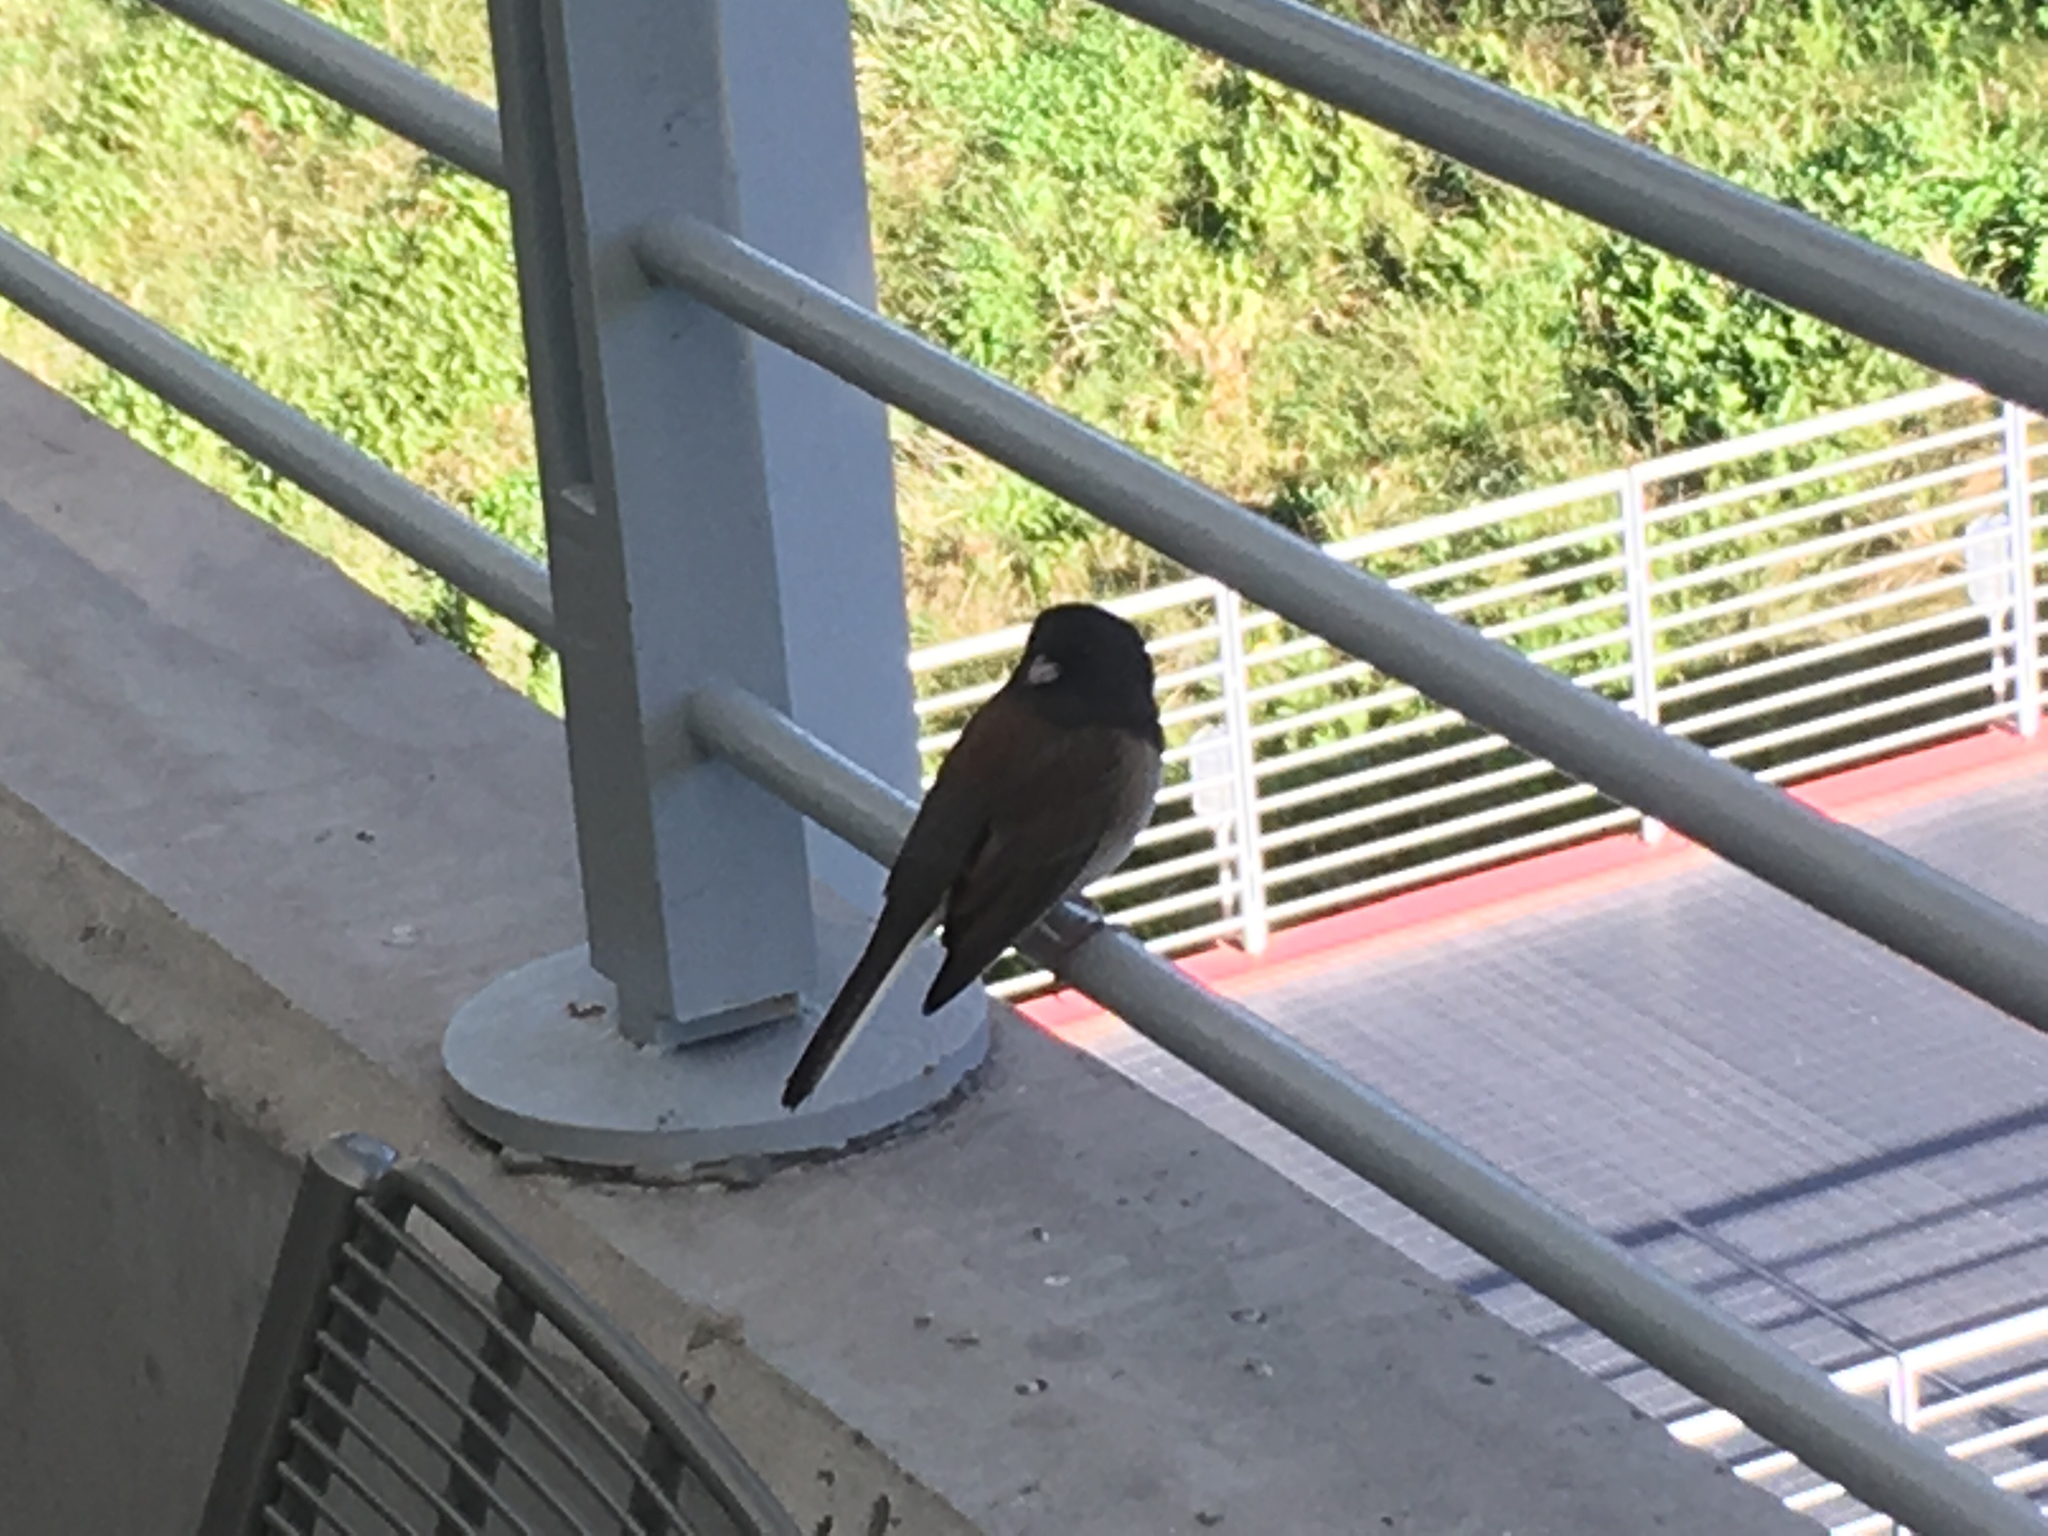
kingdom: Animalia
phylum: Chordata
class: Aves
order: Passeriformes
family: Passerellidae
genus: Junco
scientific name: Junco hyemalis
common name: Dark-eyed junco
